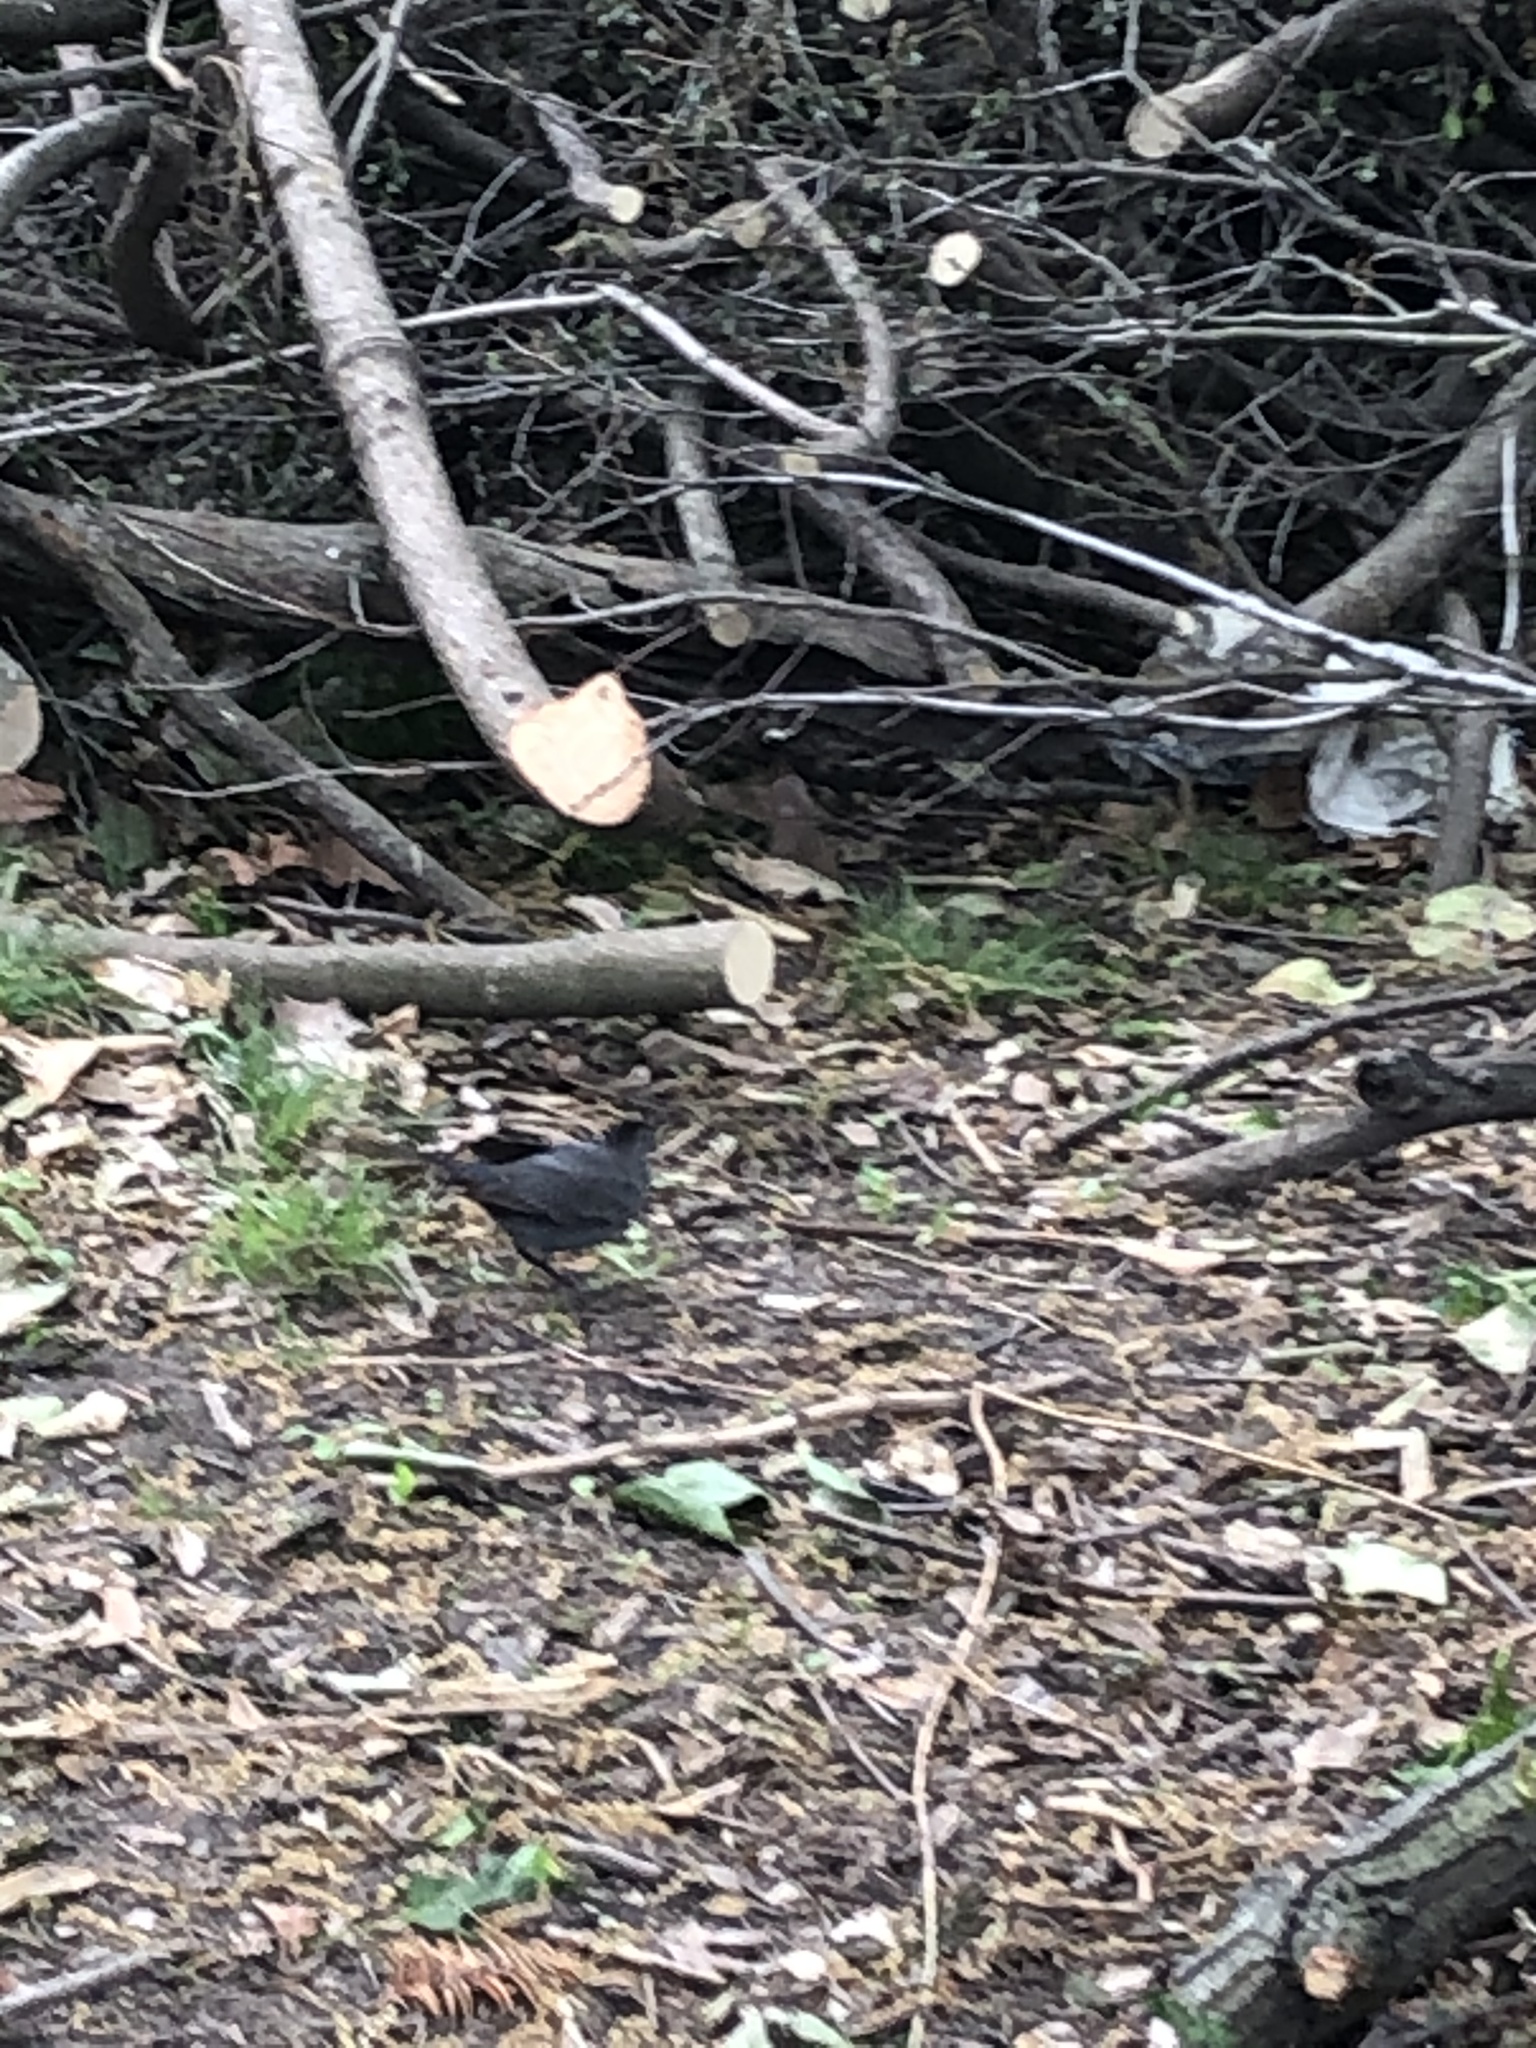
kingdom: Animalia
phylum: Chordata
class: Aves
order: Passeriformes
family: Mimidae
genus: Dumetella
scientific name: Dumetella carolinensis
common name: Gray catbird
